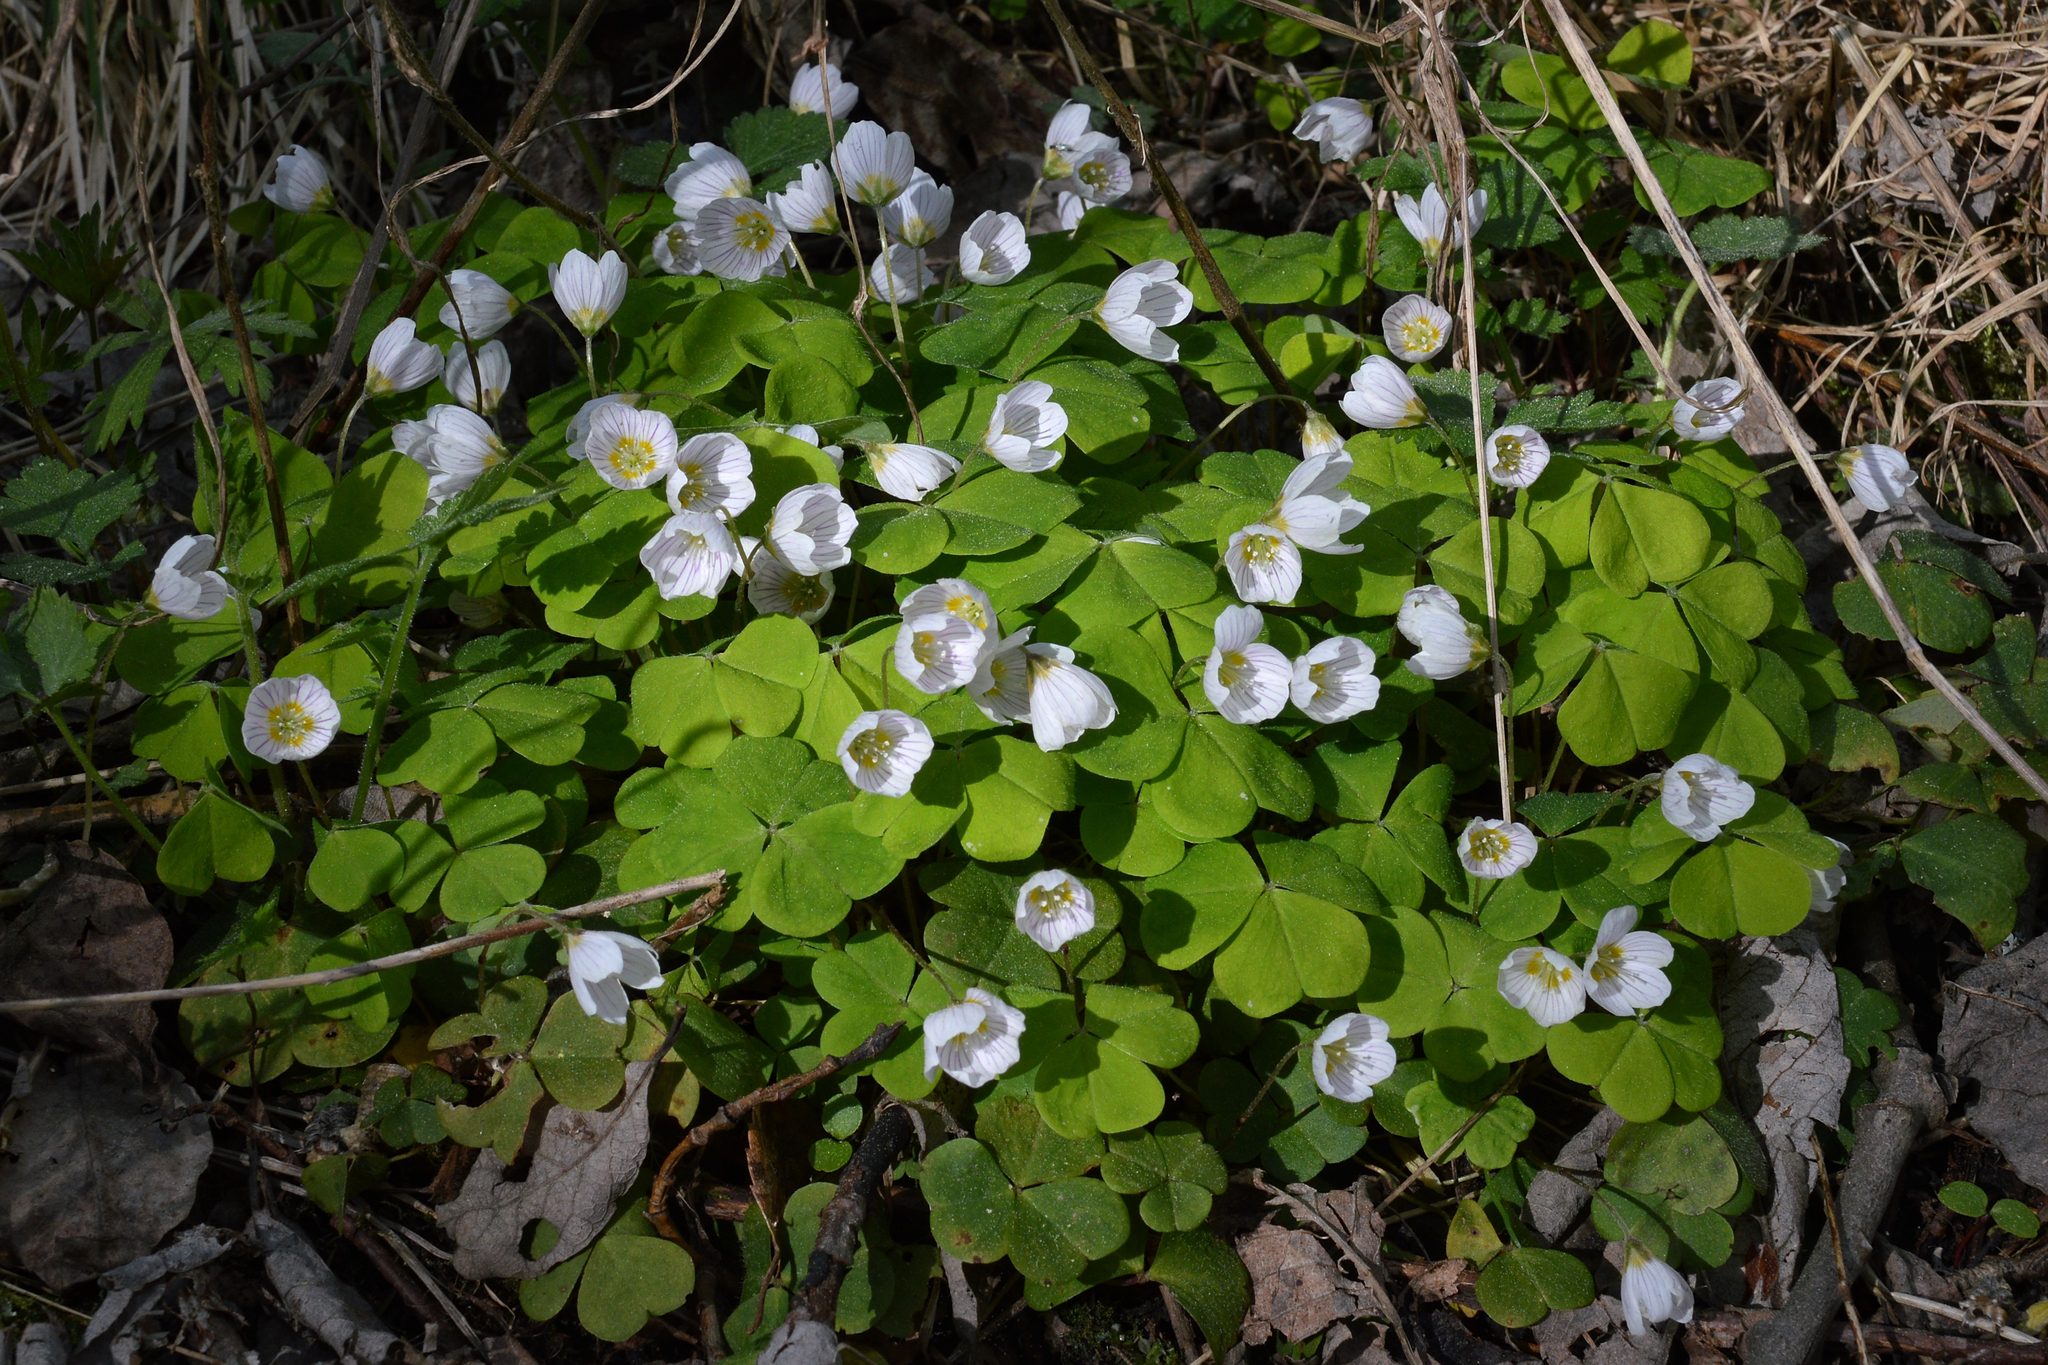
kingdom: Plantae
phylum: Tracheophyta
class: Magnoliopsida
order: Oxalidales
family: Oxalidaceae
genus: Oxalis
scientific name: Oxalis acetosella
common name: Wood-sorrel
